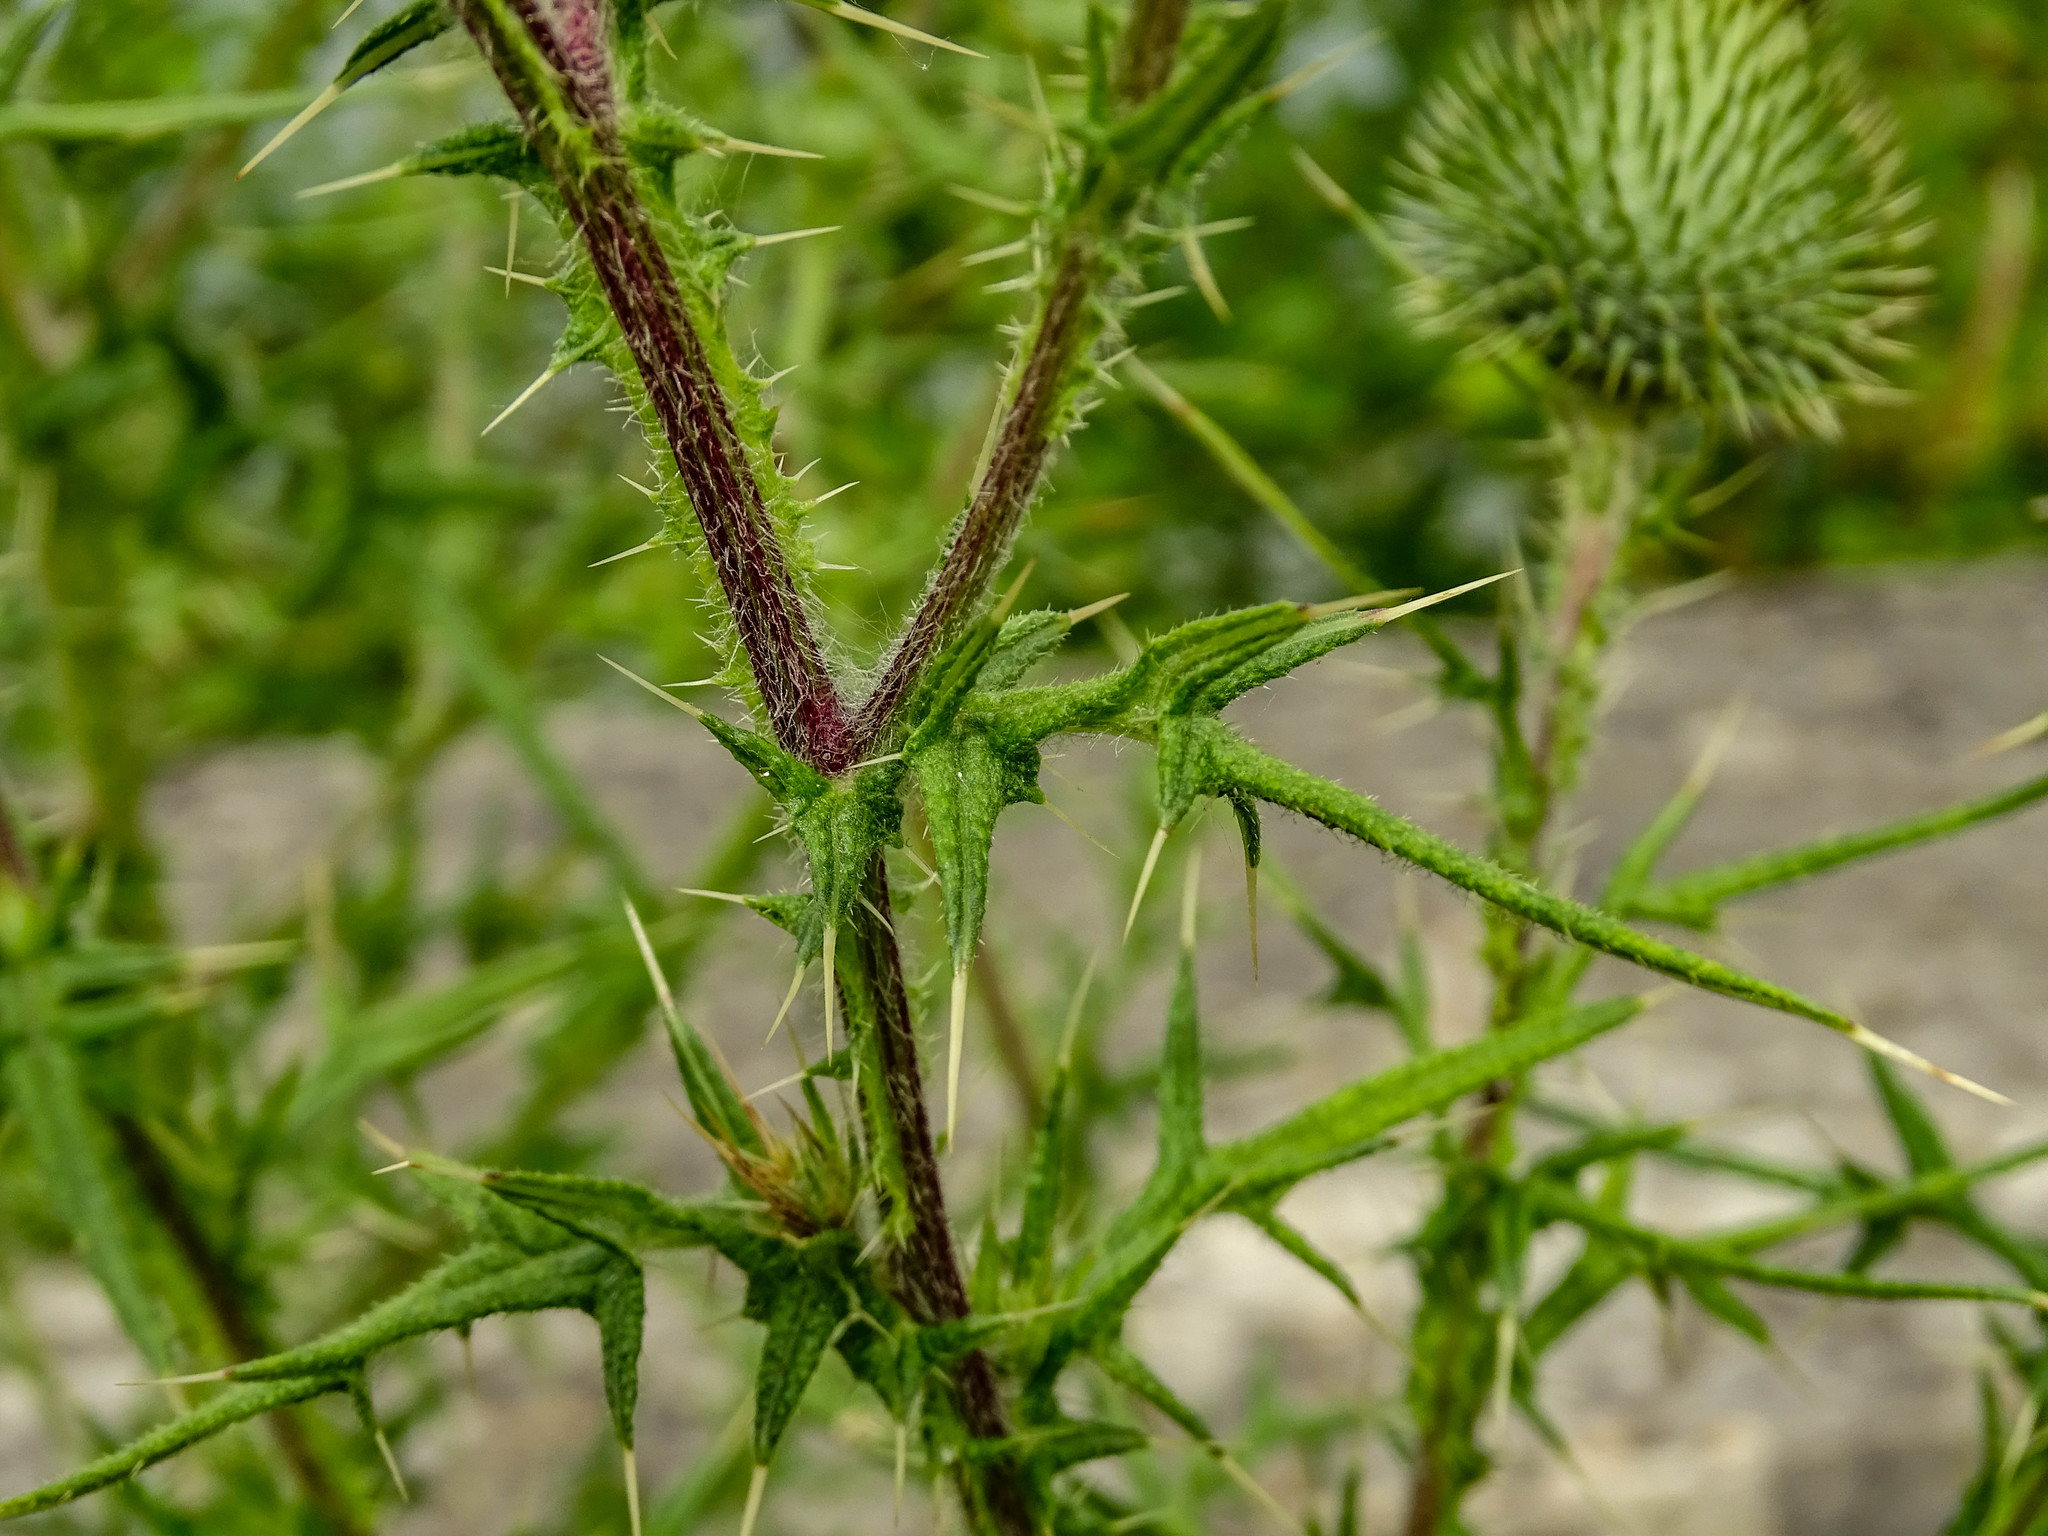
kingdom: Plantae
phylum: Tracheophyta
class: Magnoliopsida
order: Asterales
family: Asteraceae
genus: Cirsium
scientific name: Cirsium vulgare
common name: Bull thistle
